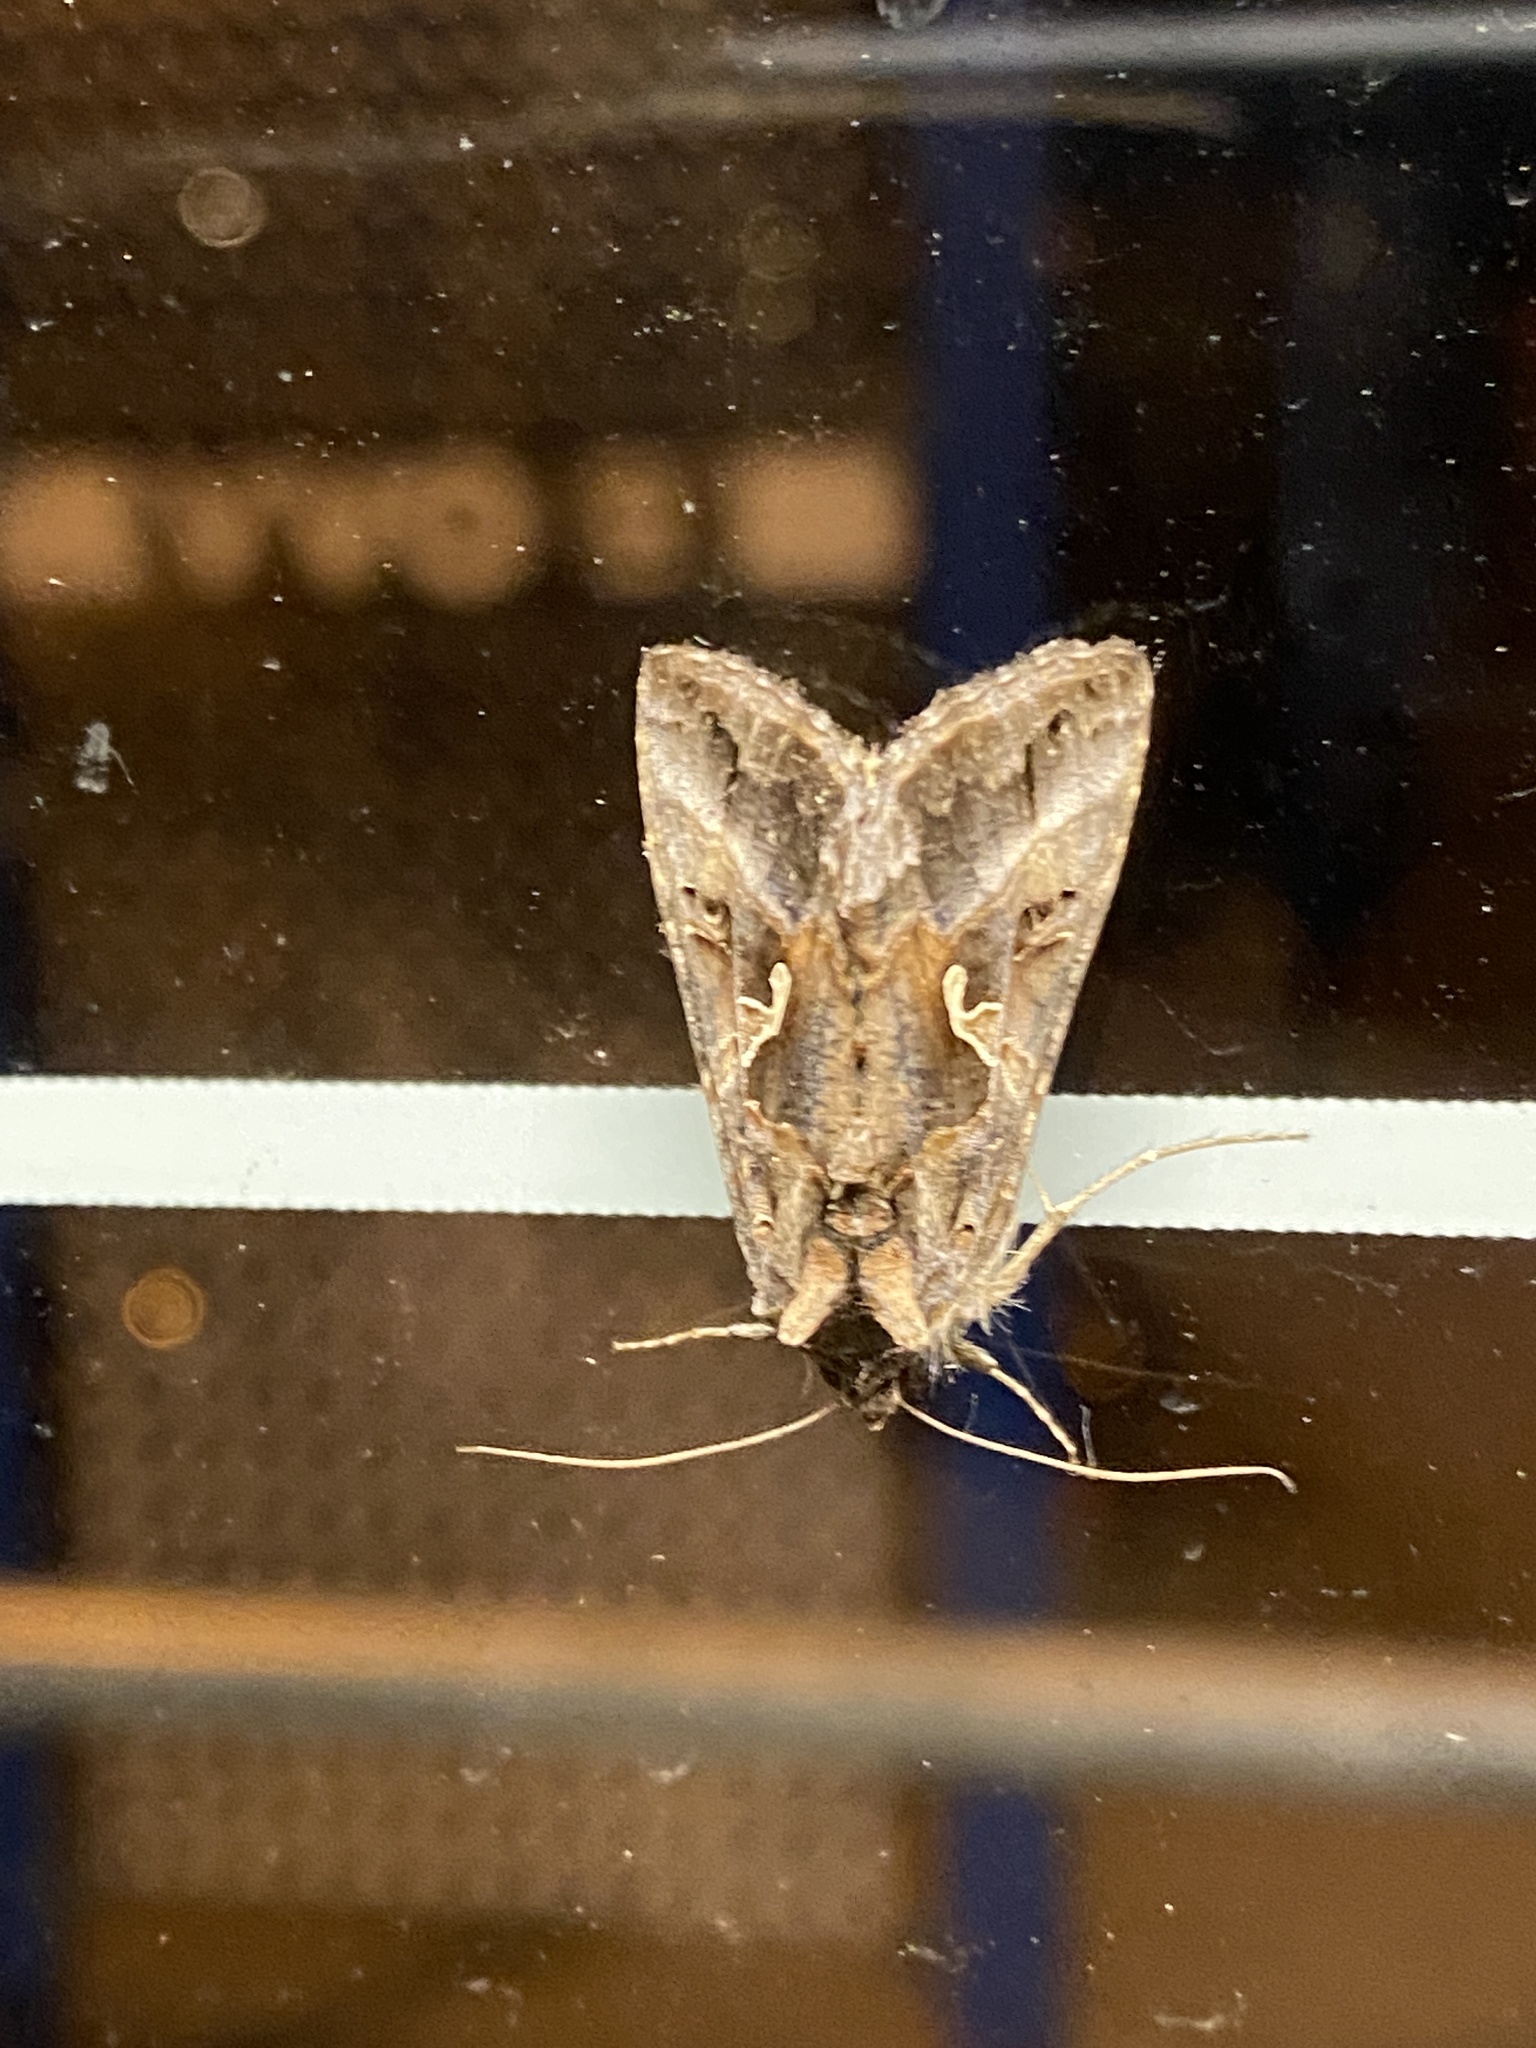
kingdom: Animalia
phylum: Arthropoda
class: Insecta
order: Lepidoptera
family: Noctuidae
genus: Autographa
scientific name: Autographa gamma
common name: Silver y
